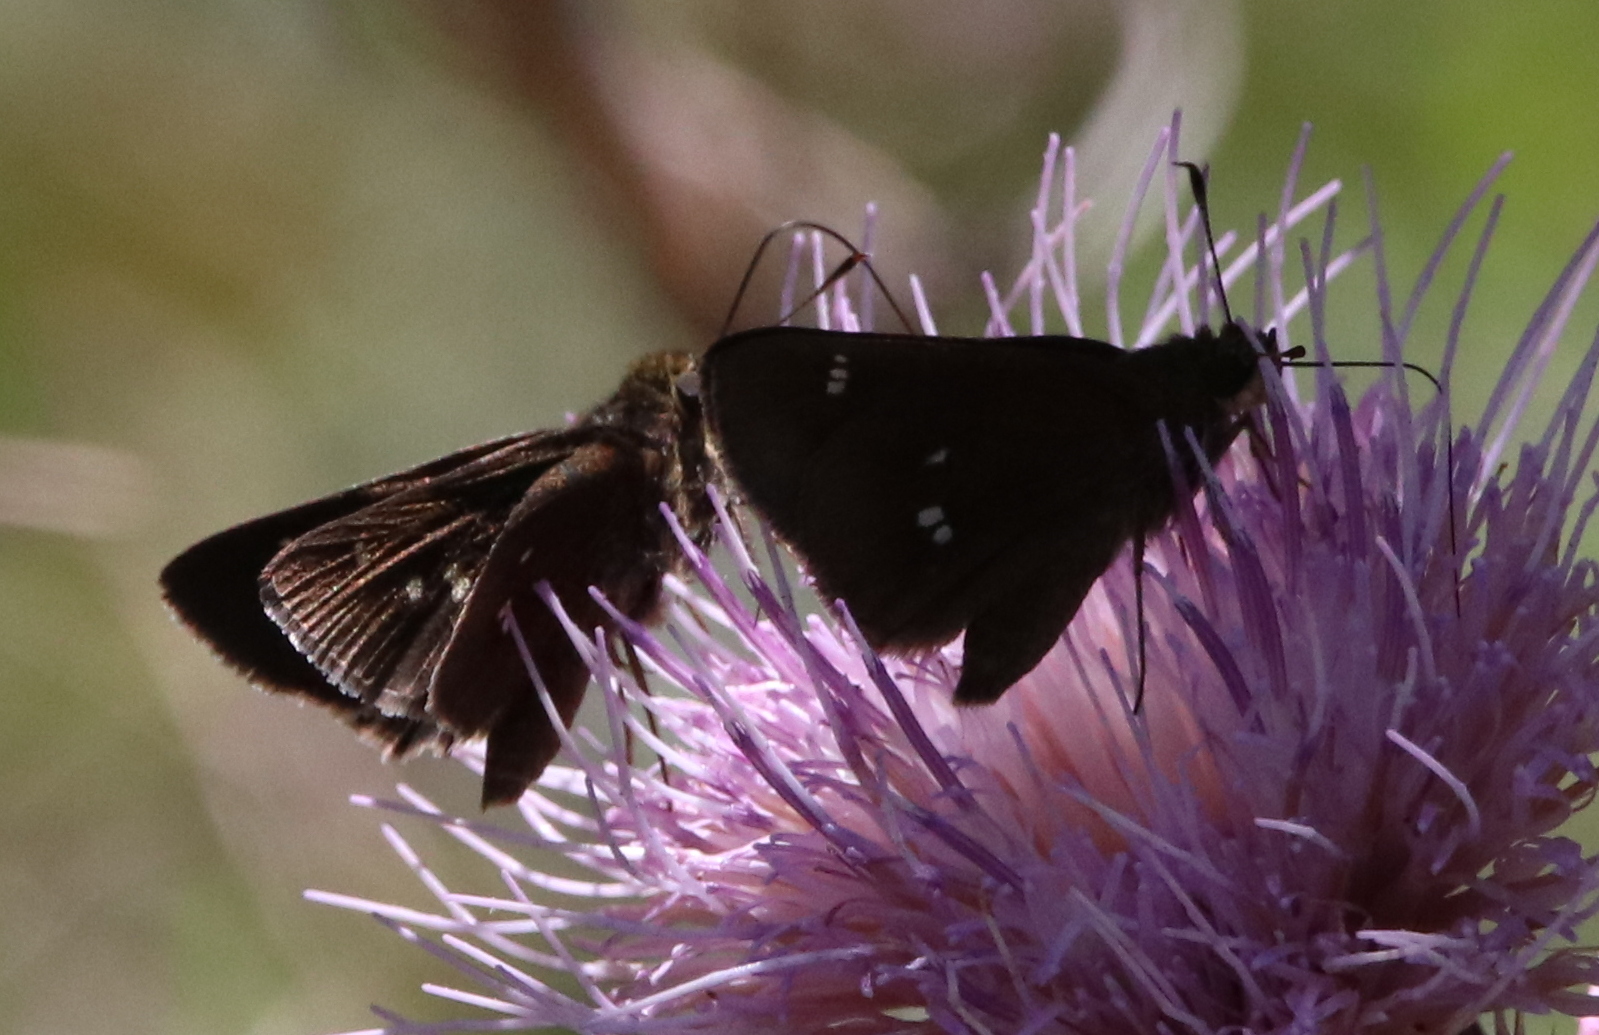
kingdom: Animalia
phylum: Arthropoda
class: Insecta
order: Lepidoptera
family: Hesperiidae
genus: Oligoria
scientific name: Oligoria maculata
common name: Twin-spot skipper
